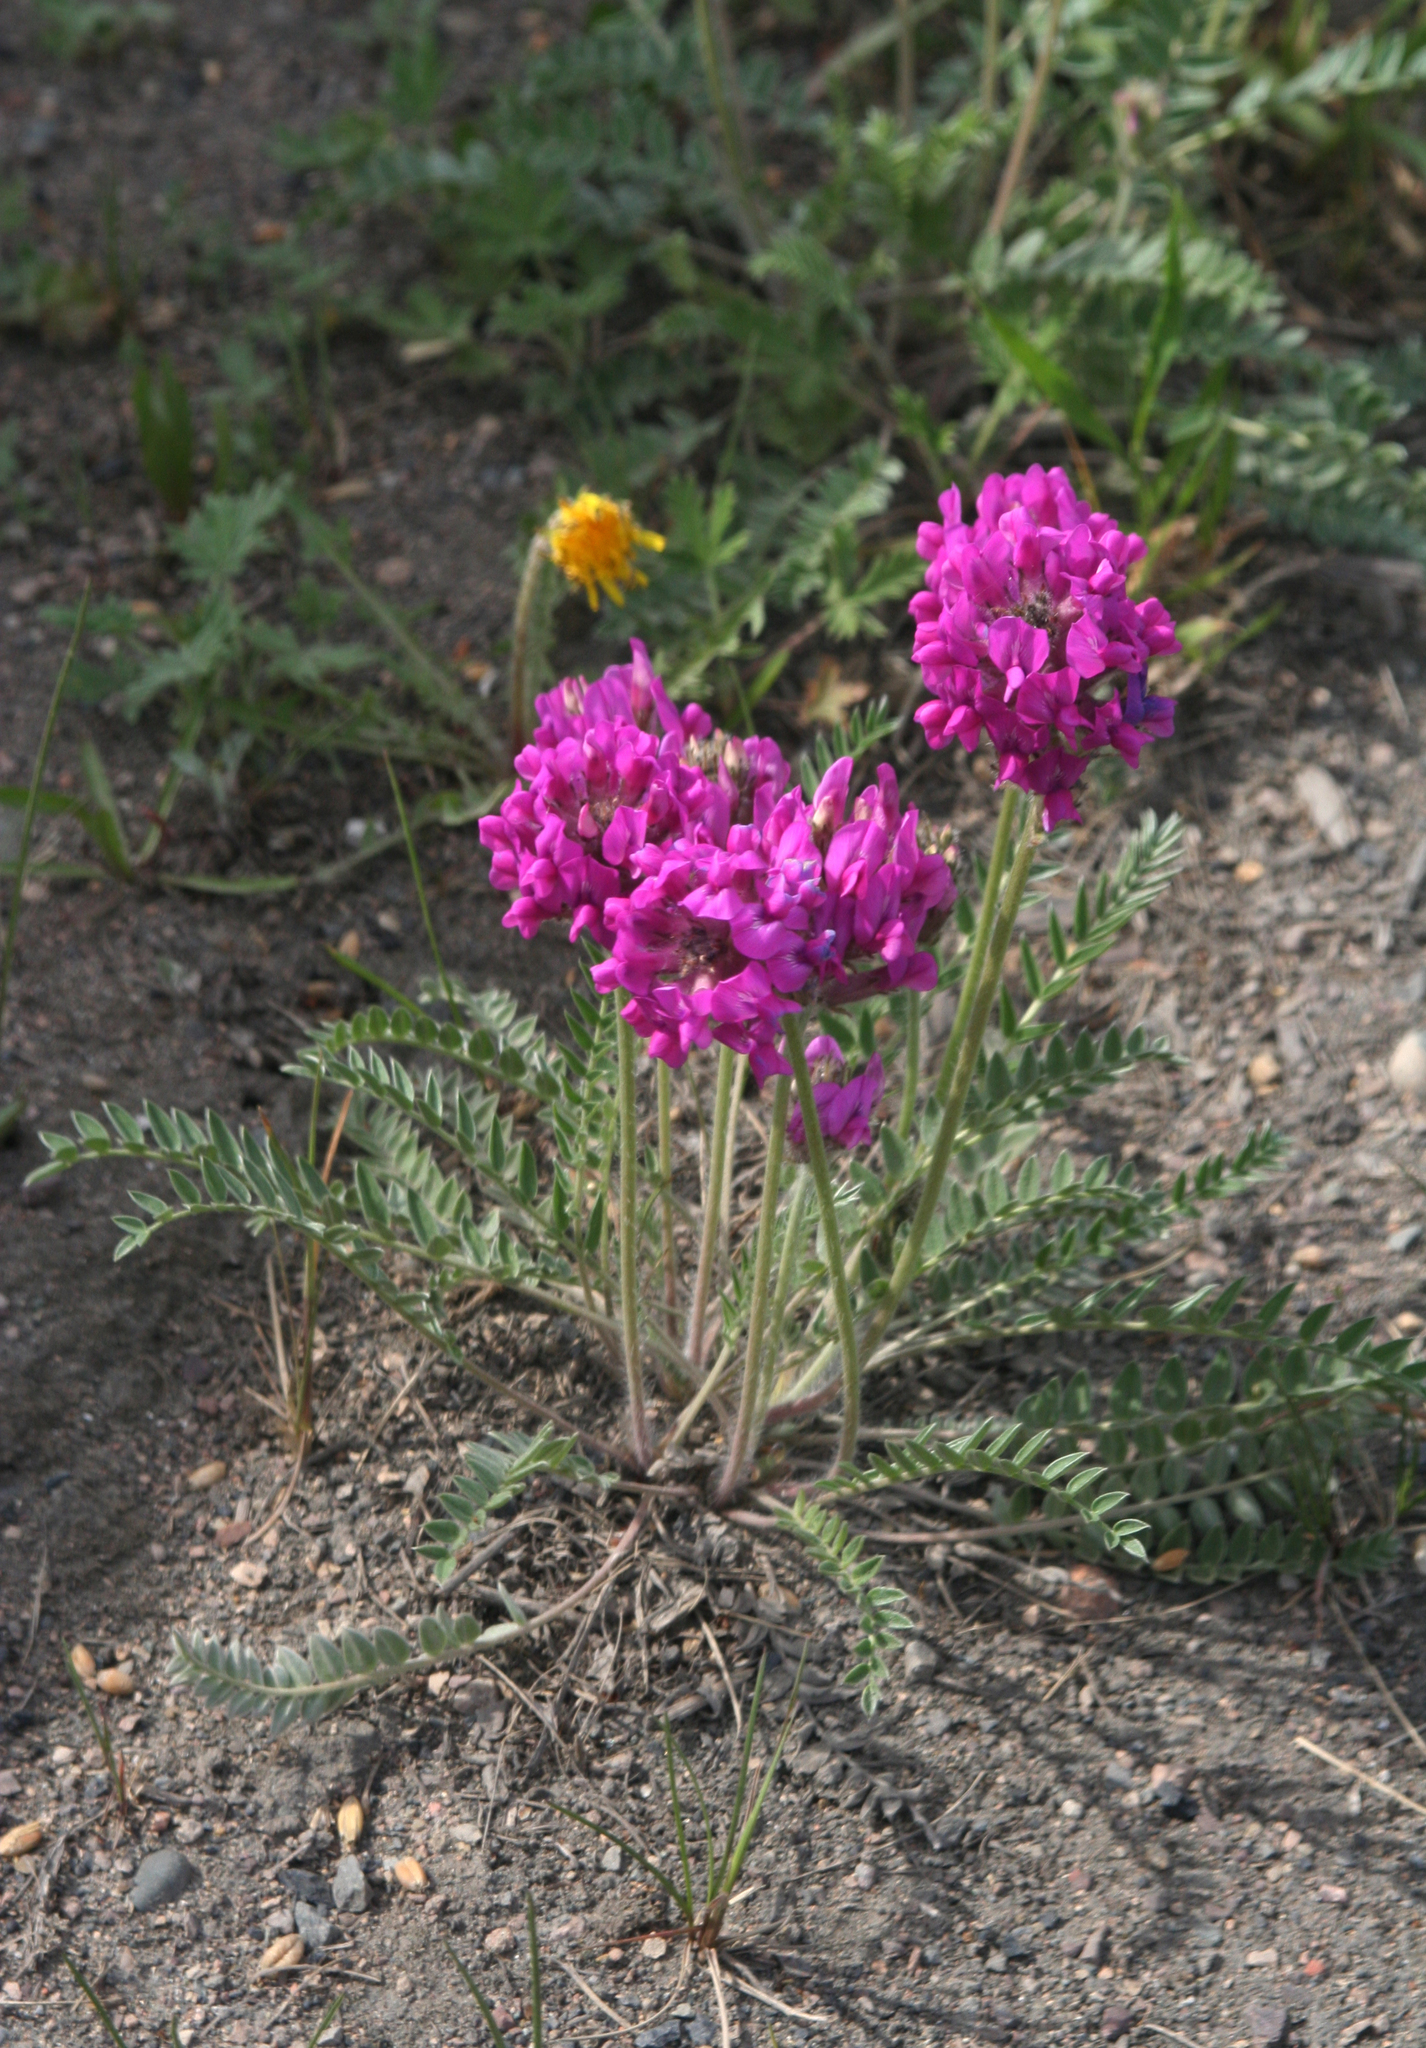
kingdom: Plantae
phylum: Tracheophyta
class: Magnoliopsida
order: Fabales
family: Fabaceae
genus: Oxytropis
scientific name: Oxytropis strobilacea
